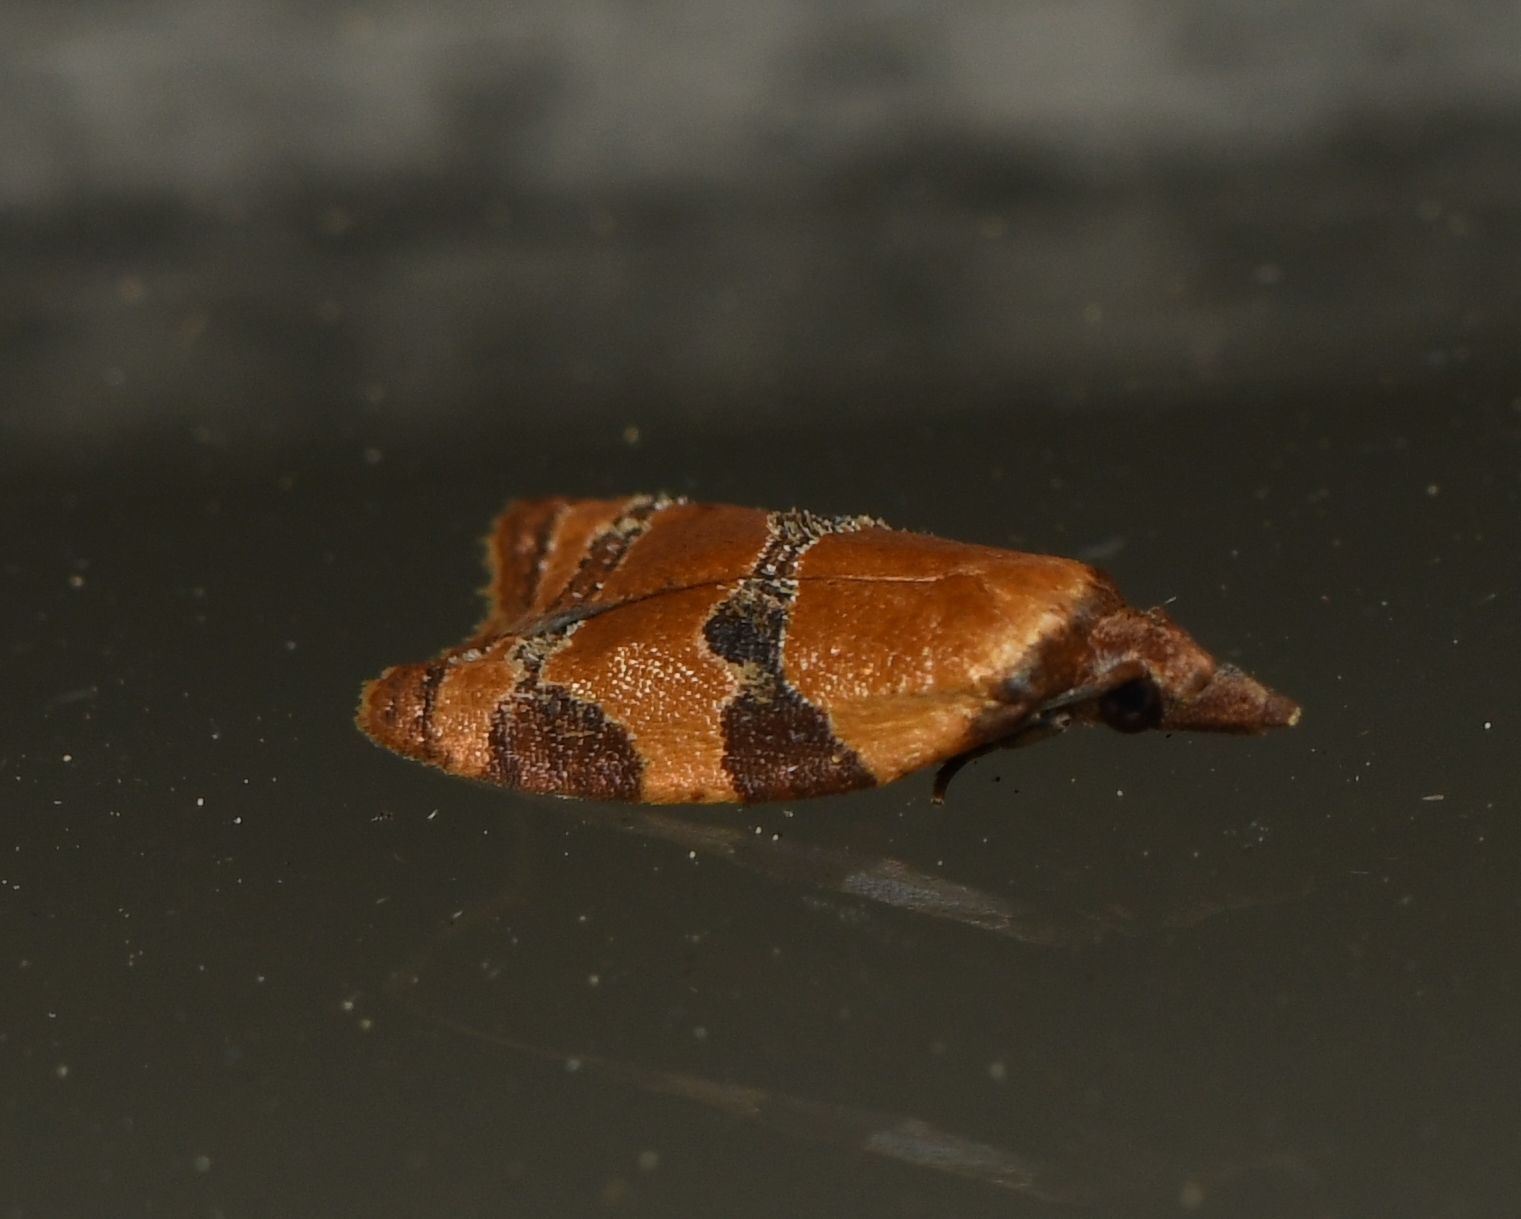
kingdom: Animalia
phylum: Arthropoda
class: Insecta
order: Lepidoptera
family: Tortricidae
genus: Cenopis
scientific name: Cenopis diluticostana
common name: Spring dead-leaf roller moth
